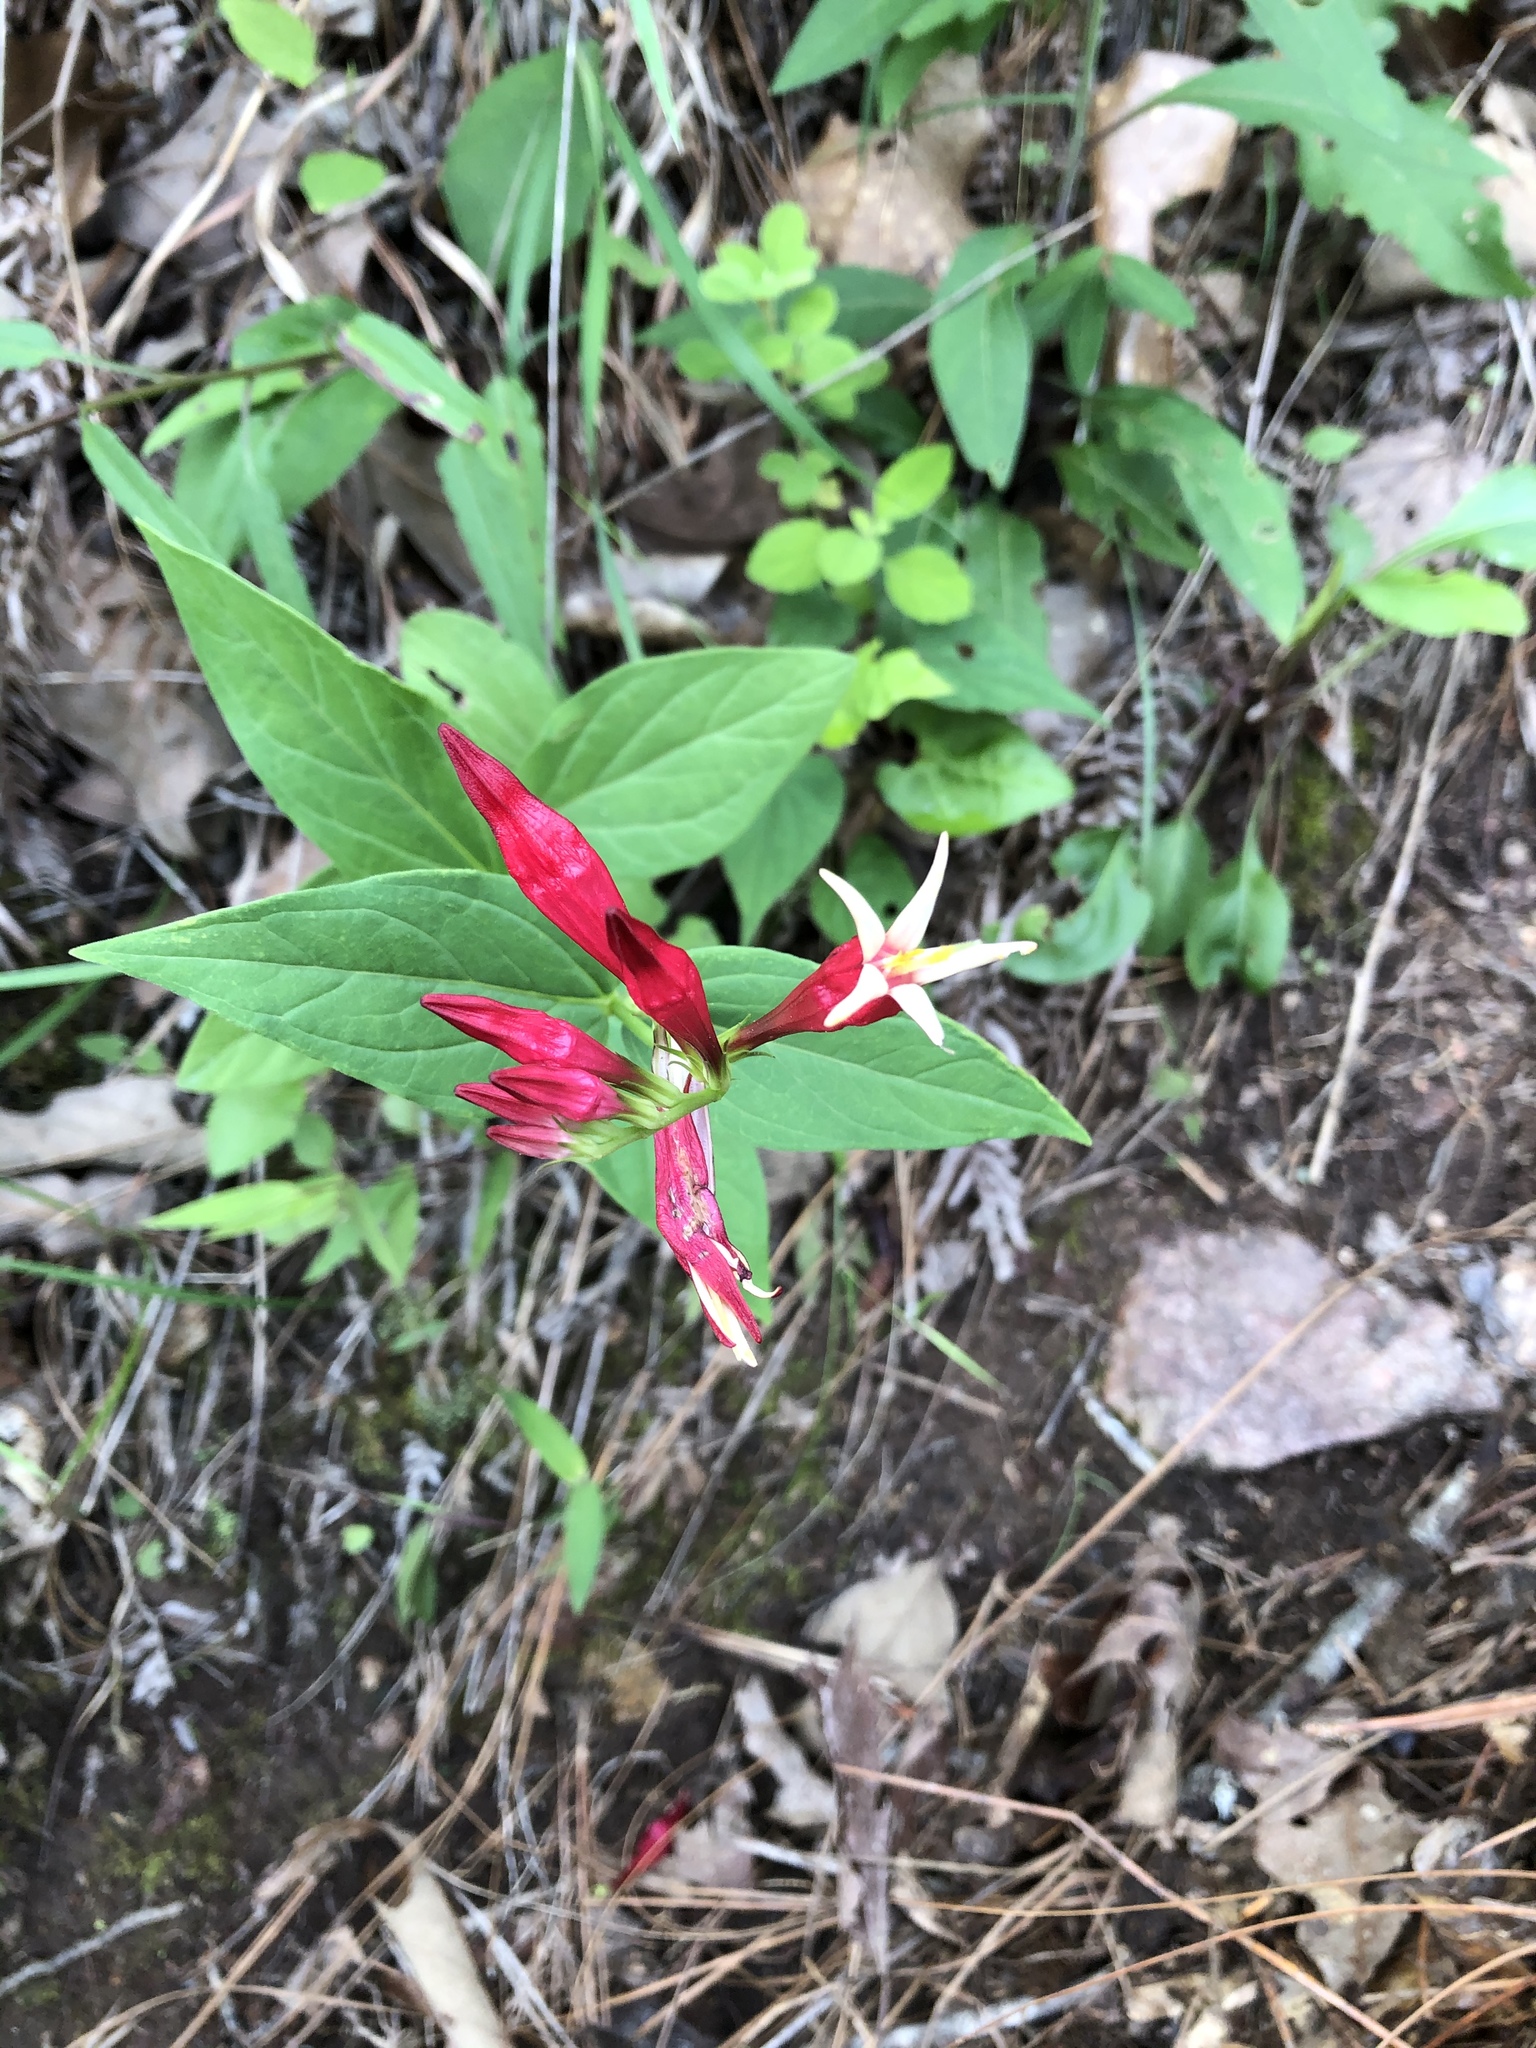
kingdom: Plantae
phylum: Tracheophyta
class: Magnoliopsida
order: Gentianales
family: Loganiaceae
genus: Spigelia
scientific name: Spigelia marilandica
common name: Indian-pink
